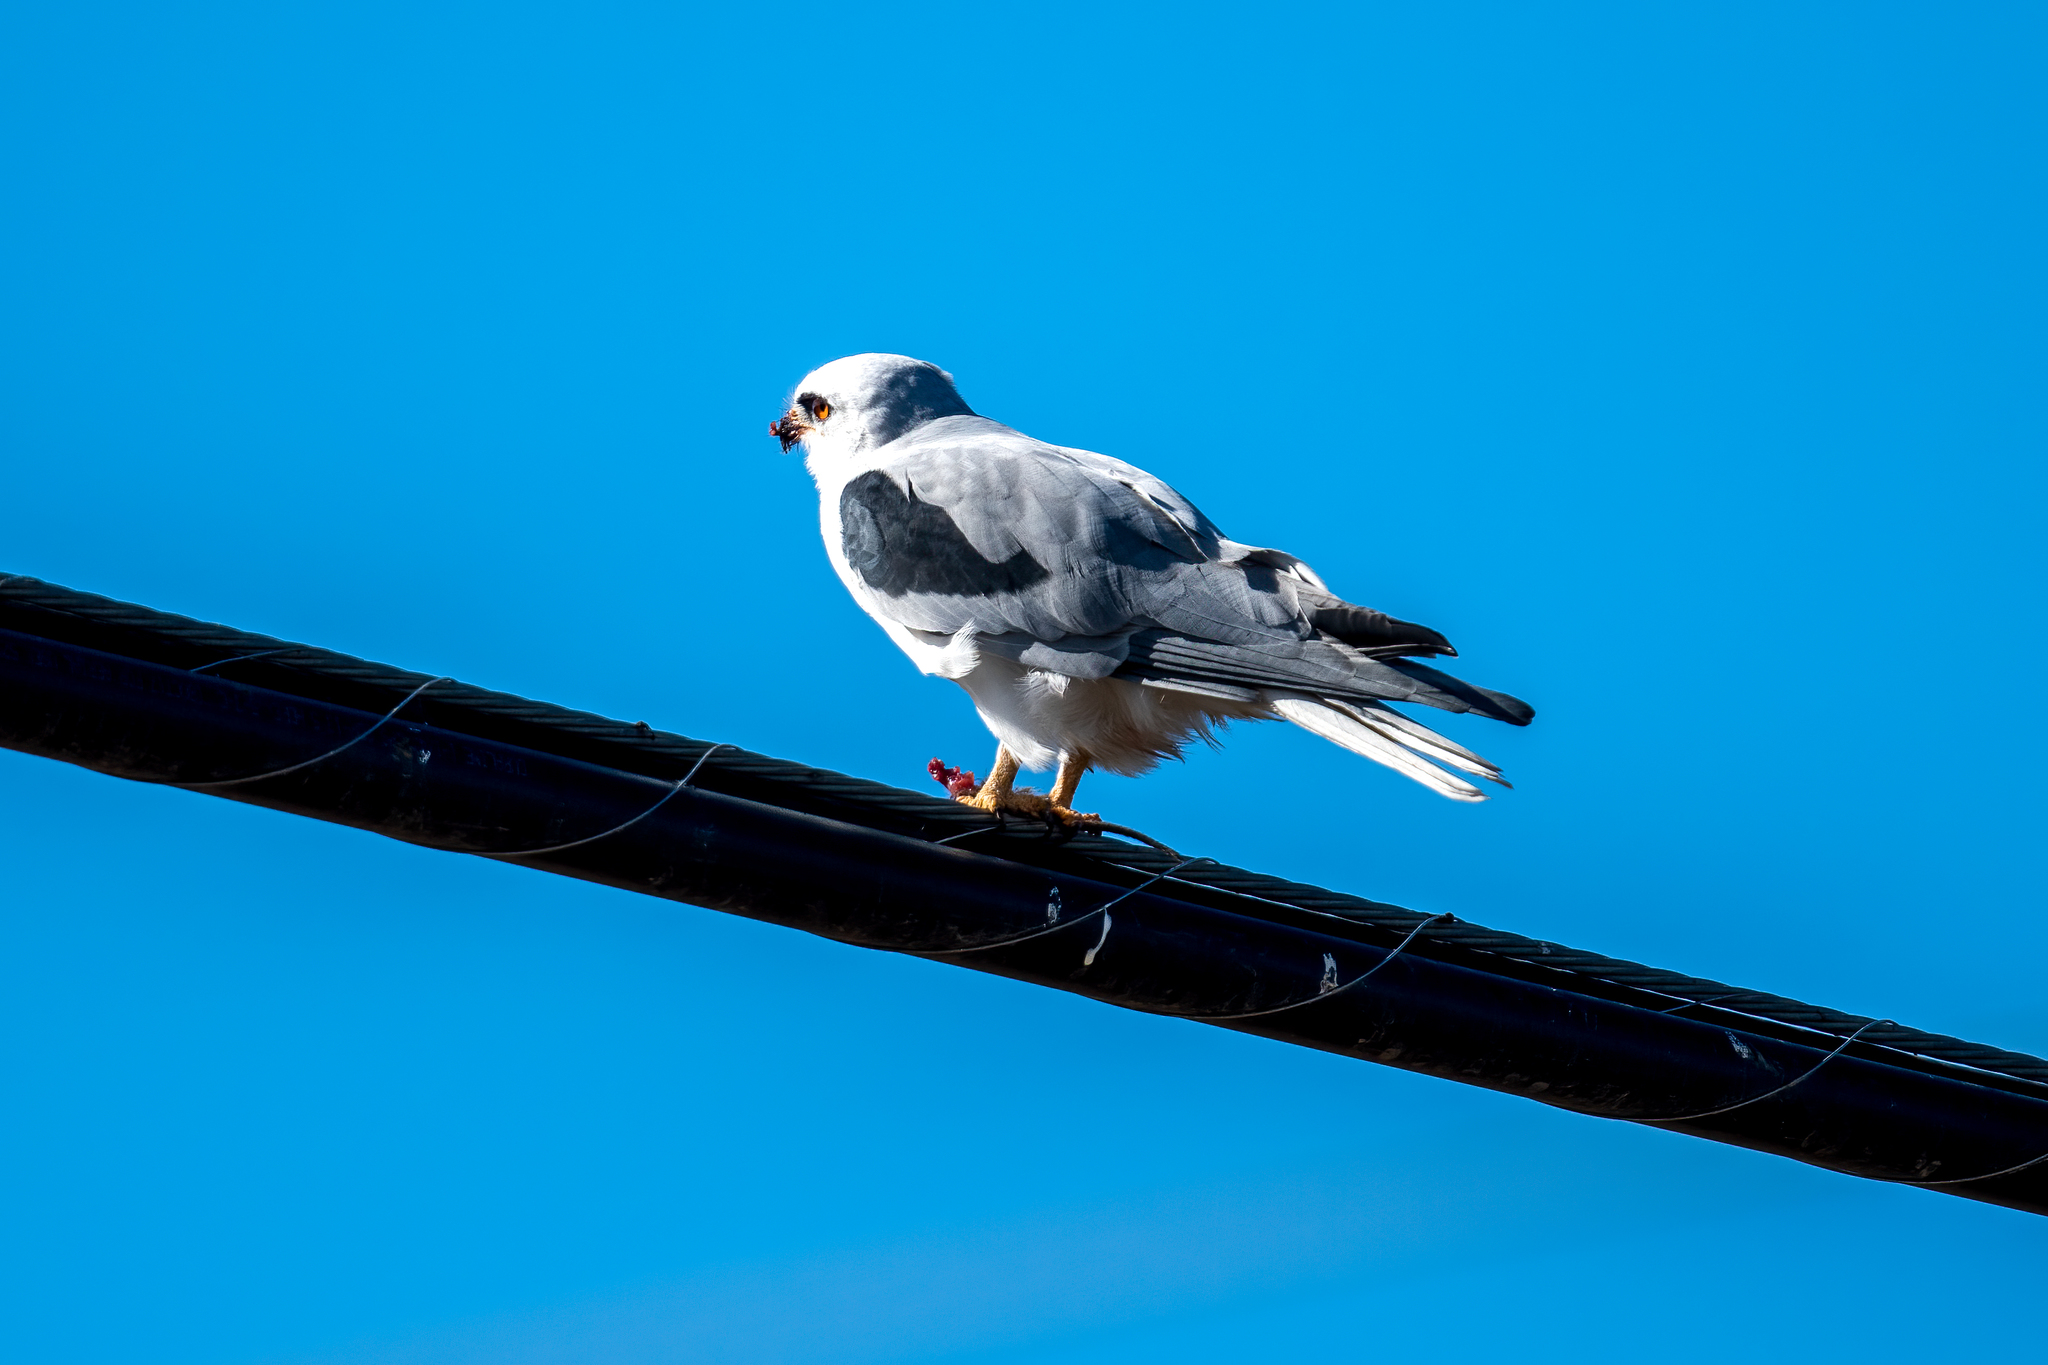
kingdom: Animalia
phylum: Chordata
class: Aves
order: Accipitriformes
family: Accipitridae
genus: Elanus
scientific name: Elanus leucurus
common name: White-tailed kite
